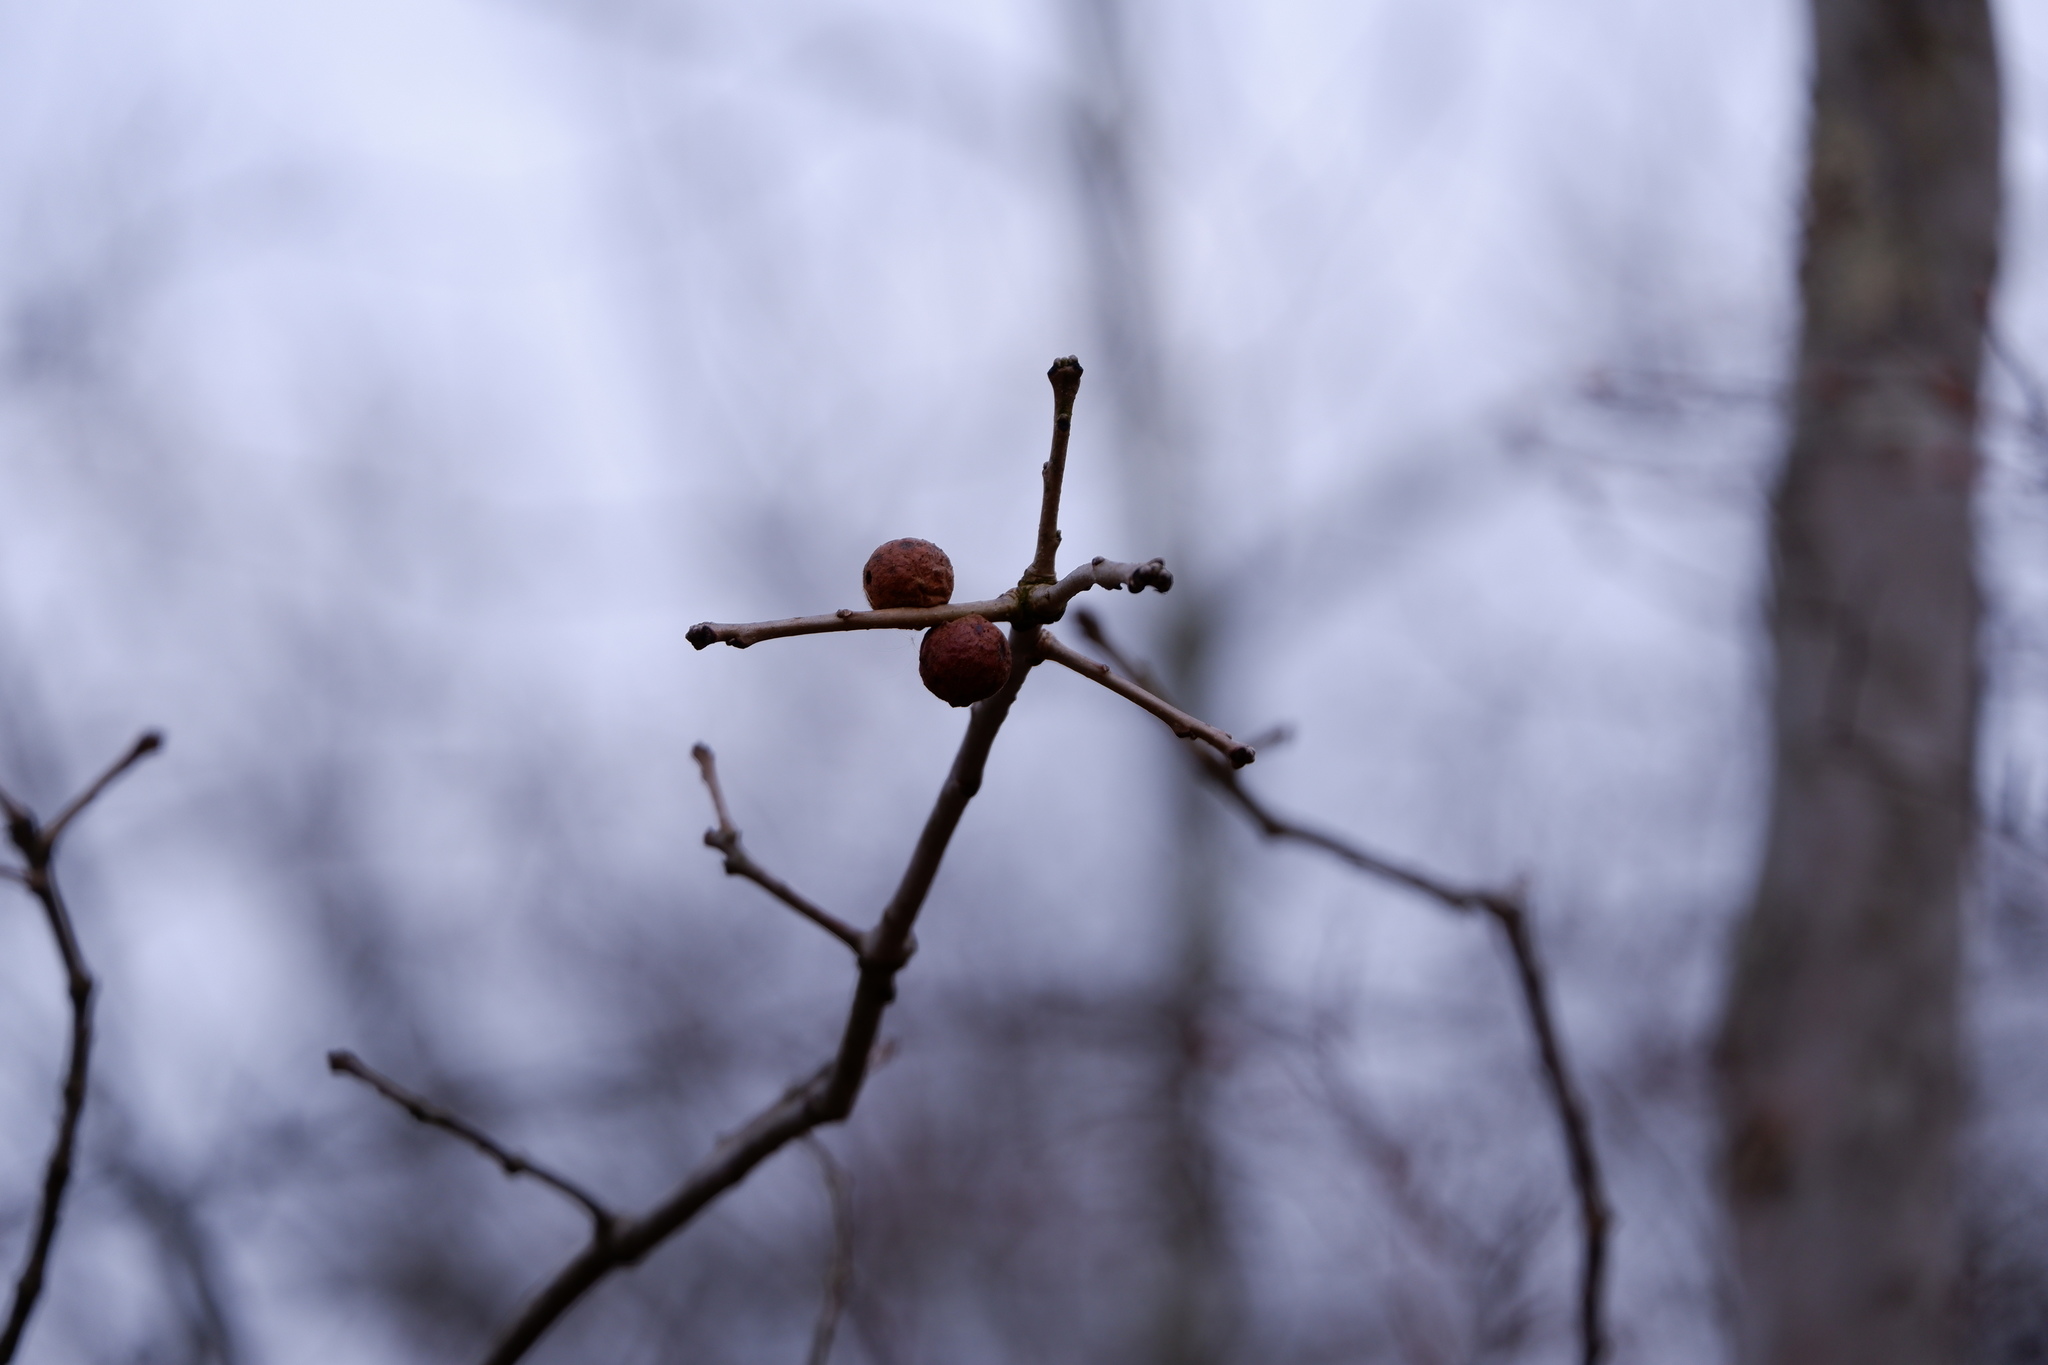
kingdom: Animalia
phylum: Arthropoda
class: Insecta
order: Hymenoptera
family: Cynipidae
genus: Disholcaspis
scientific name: Disholcaspis quercusglobulus
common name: Round bullet gall wasp
